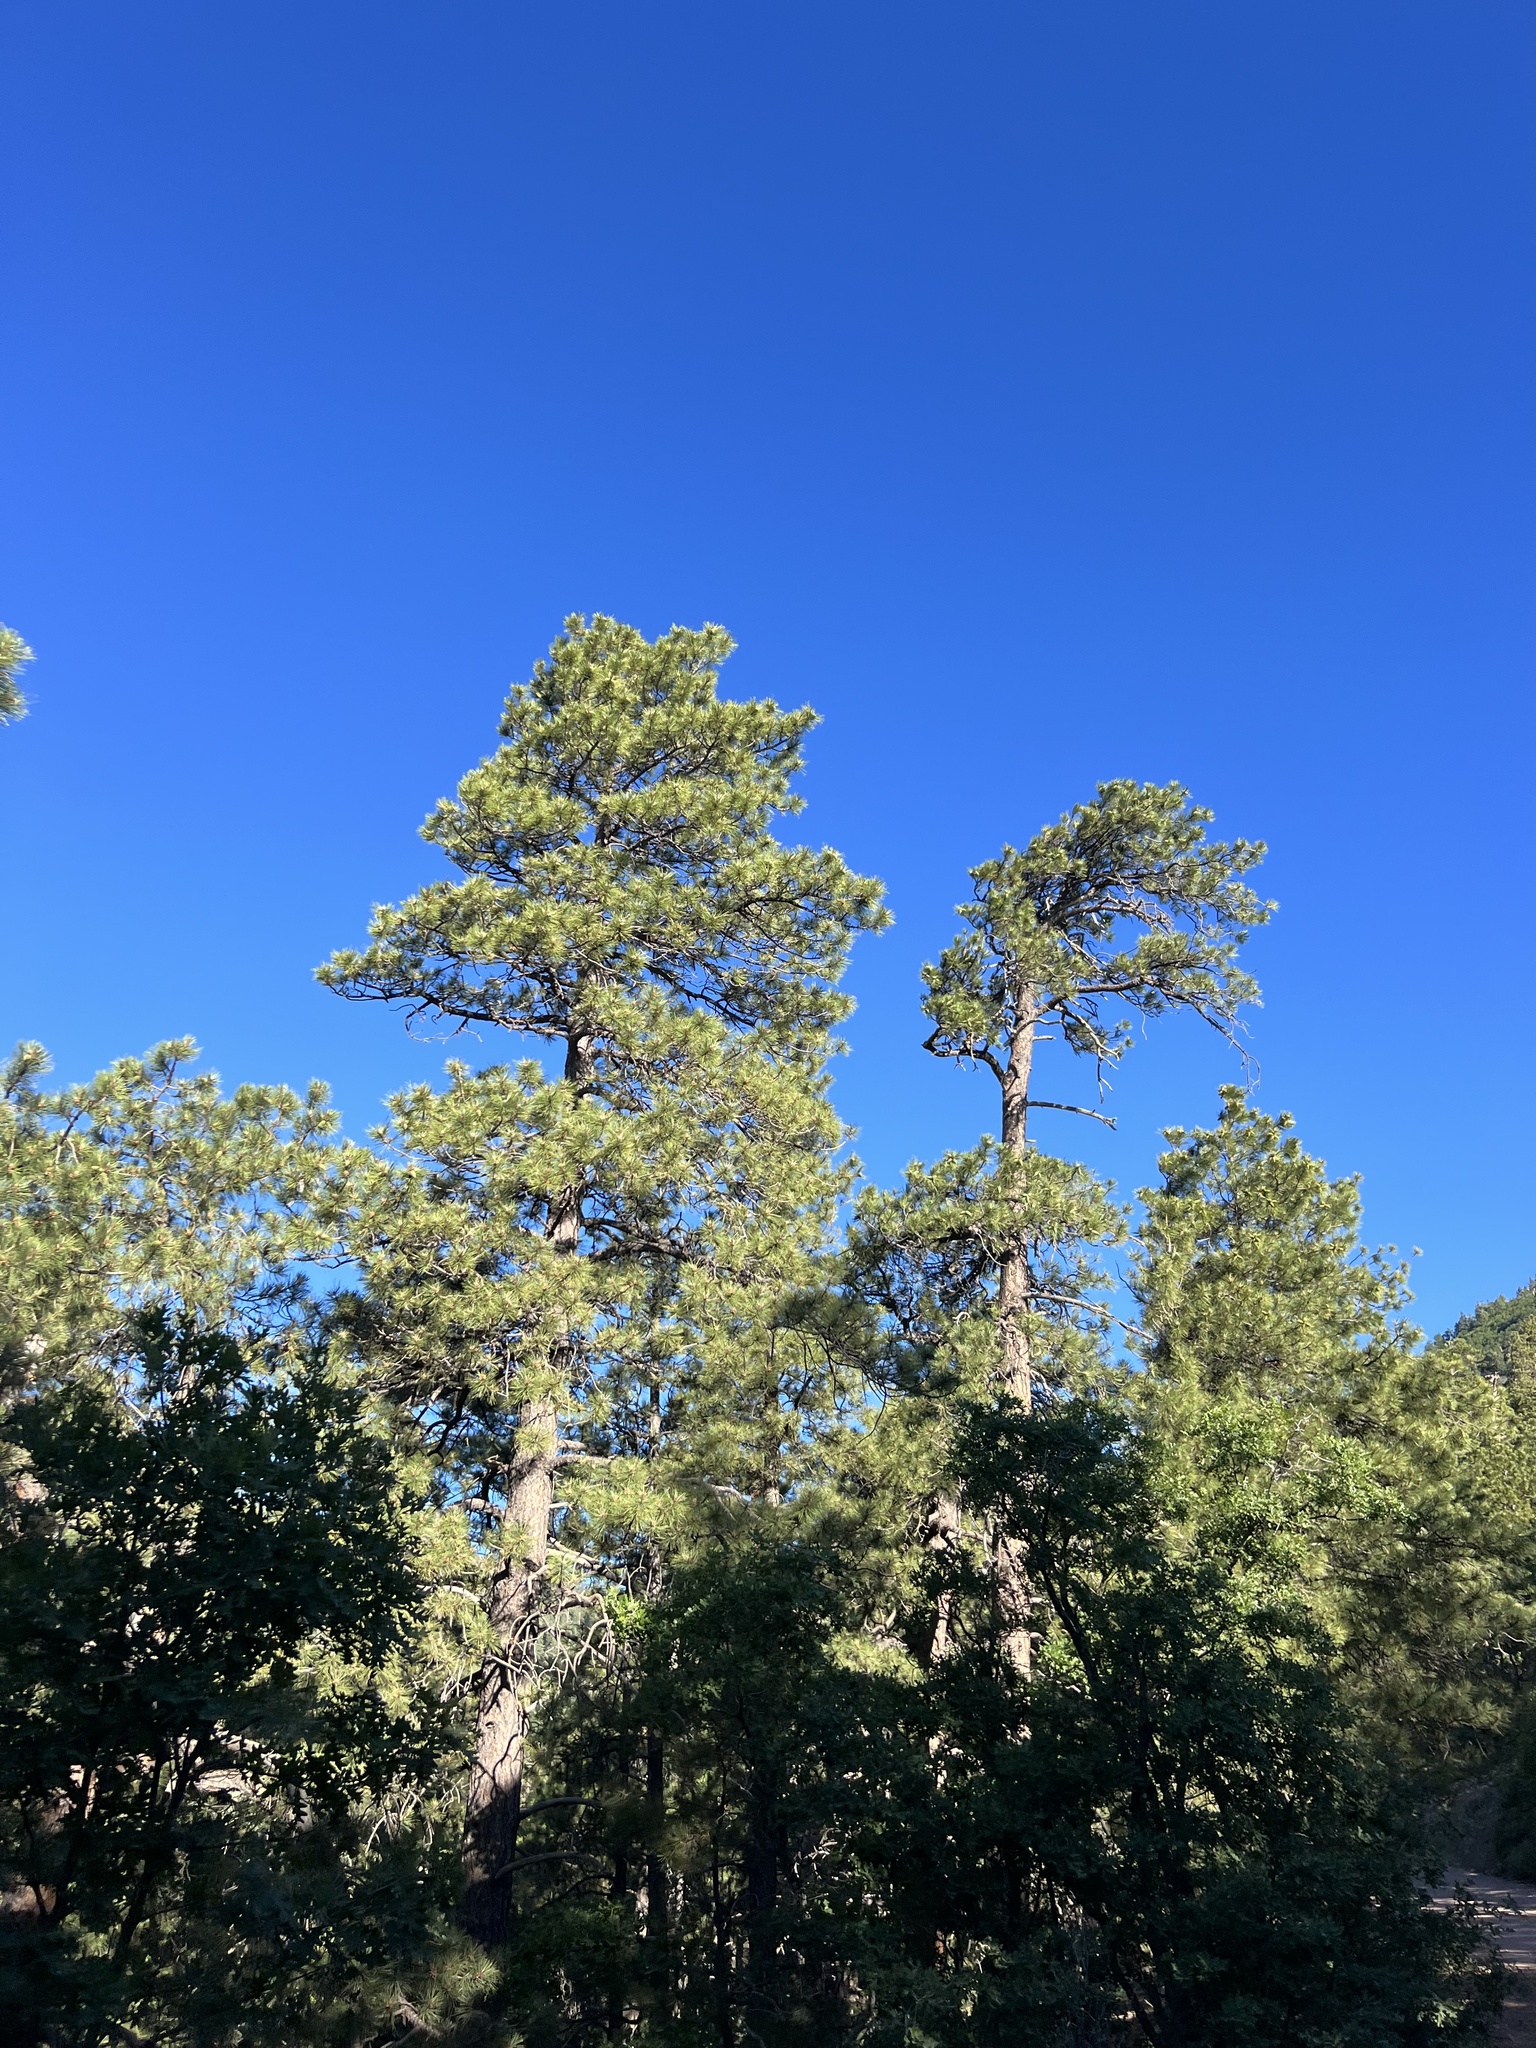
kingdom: Plantae
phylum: Tracheophyta
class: Pinopsida
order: Pinales
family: Pinaceae
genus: Pinus
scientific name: Pinus ponderosa
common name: Western yellow-pine
